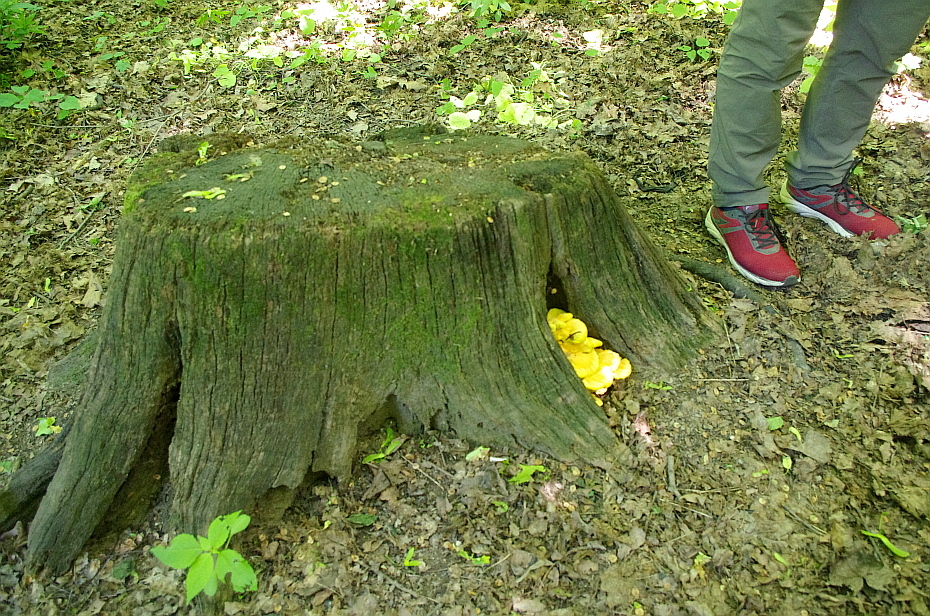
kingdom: Fungi
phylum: Basidiomycota
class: Agaricomycetes
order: Polyporales
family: Laetiporaceae
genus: Laetiporus
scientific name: Laetiporus sulphureus
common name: Chicken of the woods
